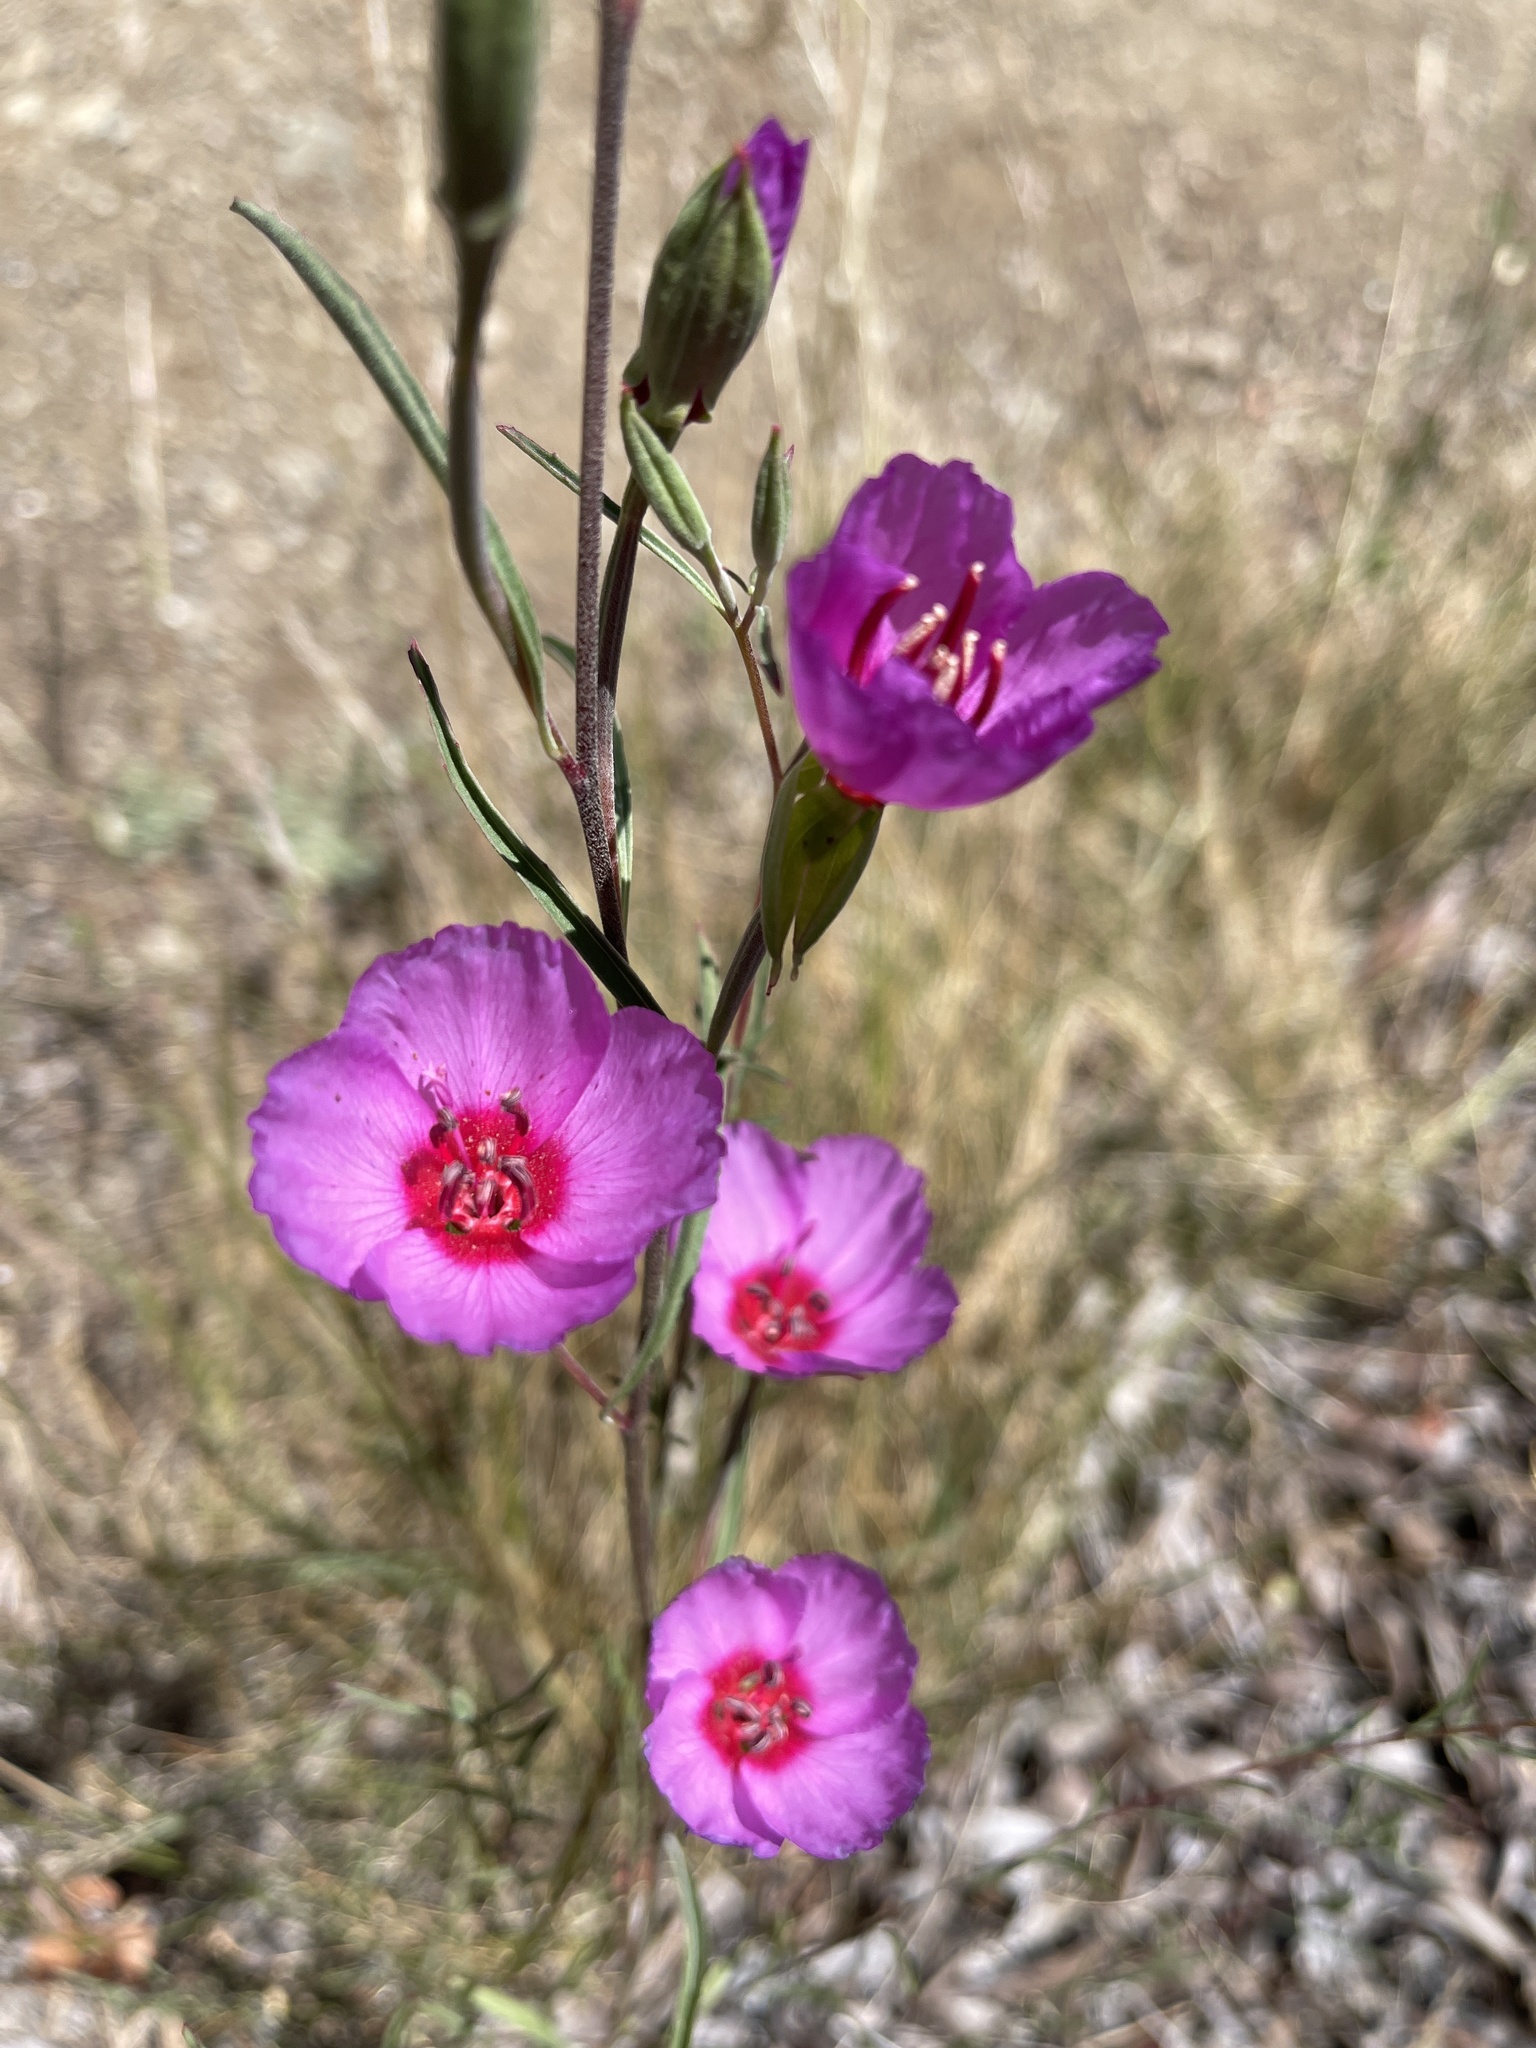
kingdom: Plantae
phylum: Tracheophyta
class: Magnoliopsida
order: Myrtales
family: Onagraceae
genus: Clarkia
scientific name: Clarkia rubicunda
